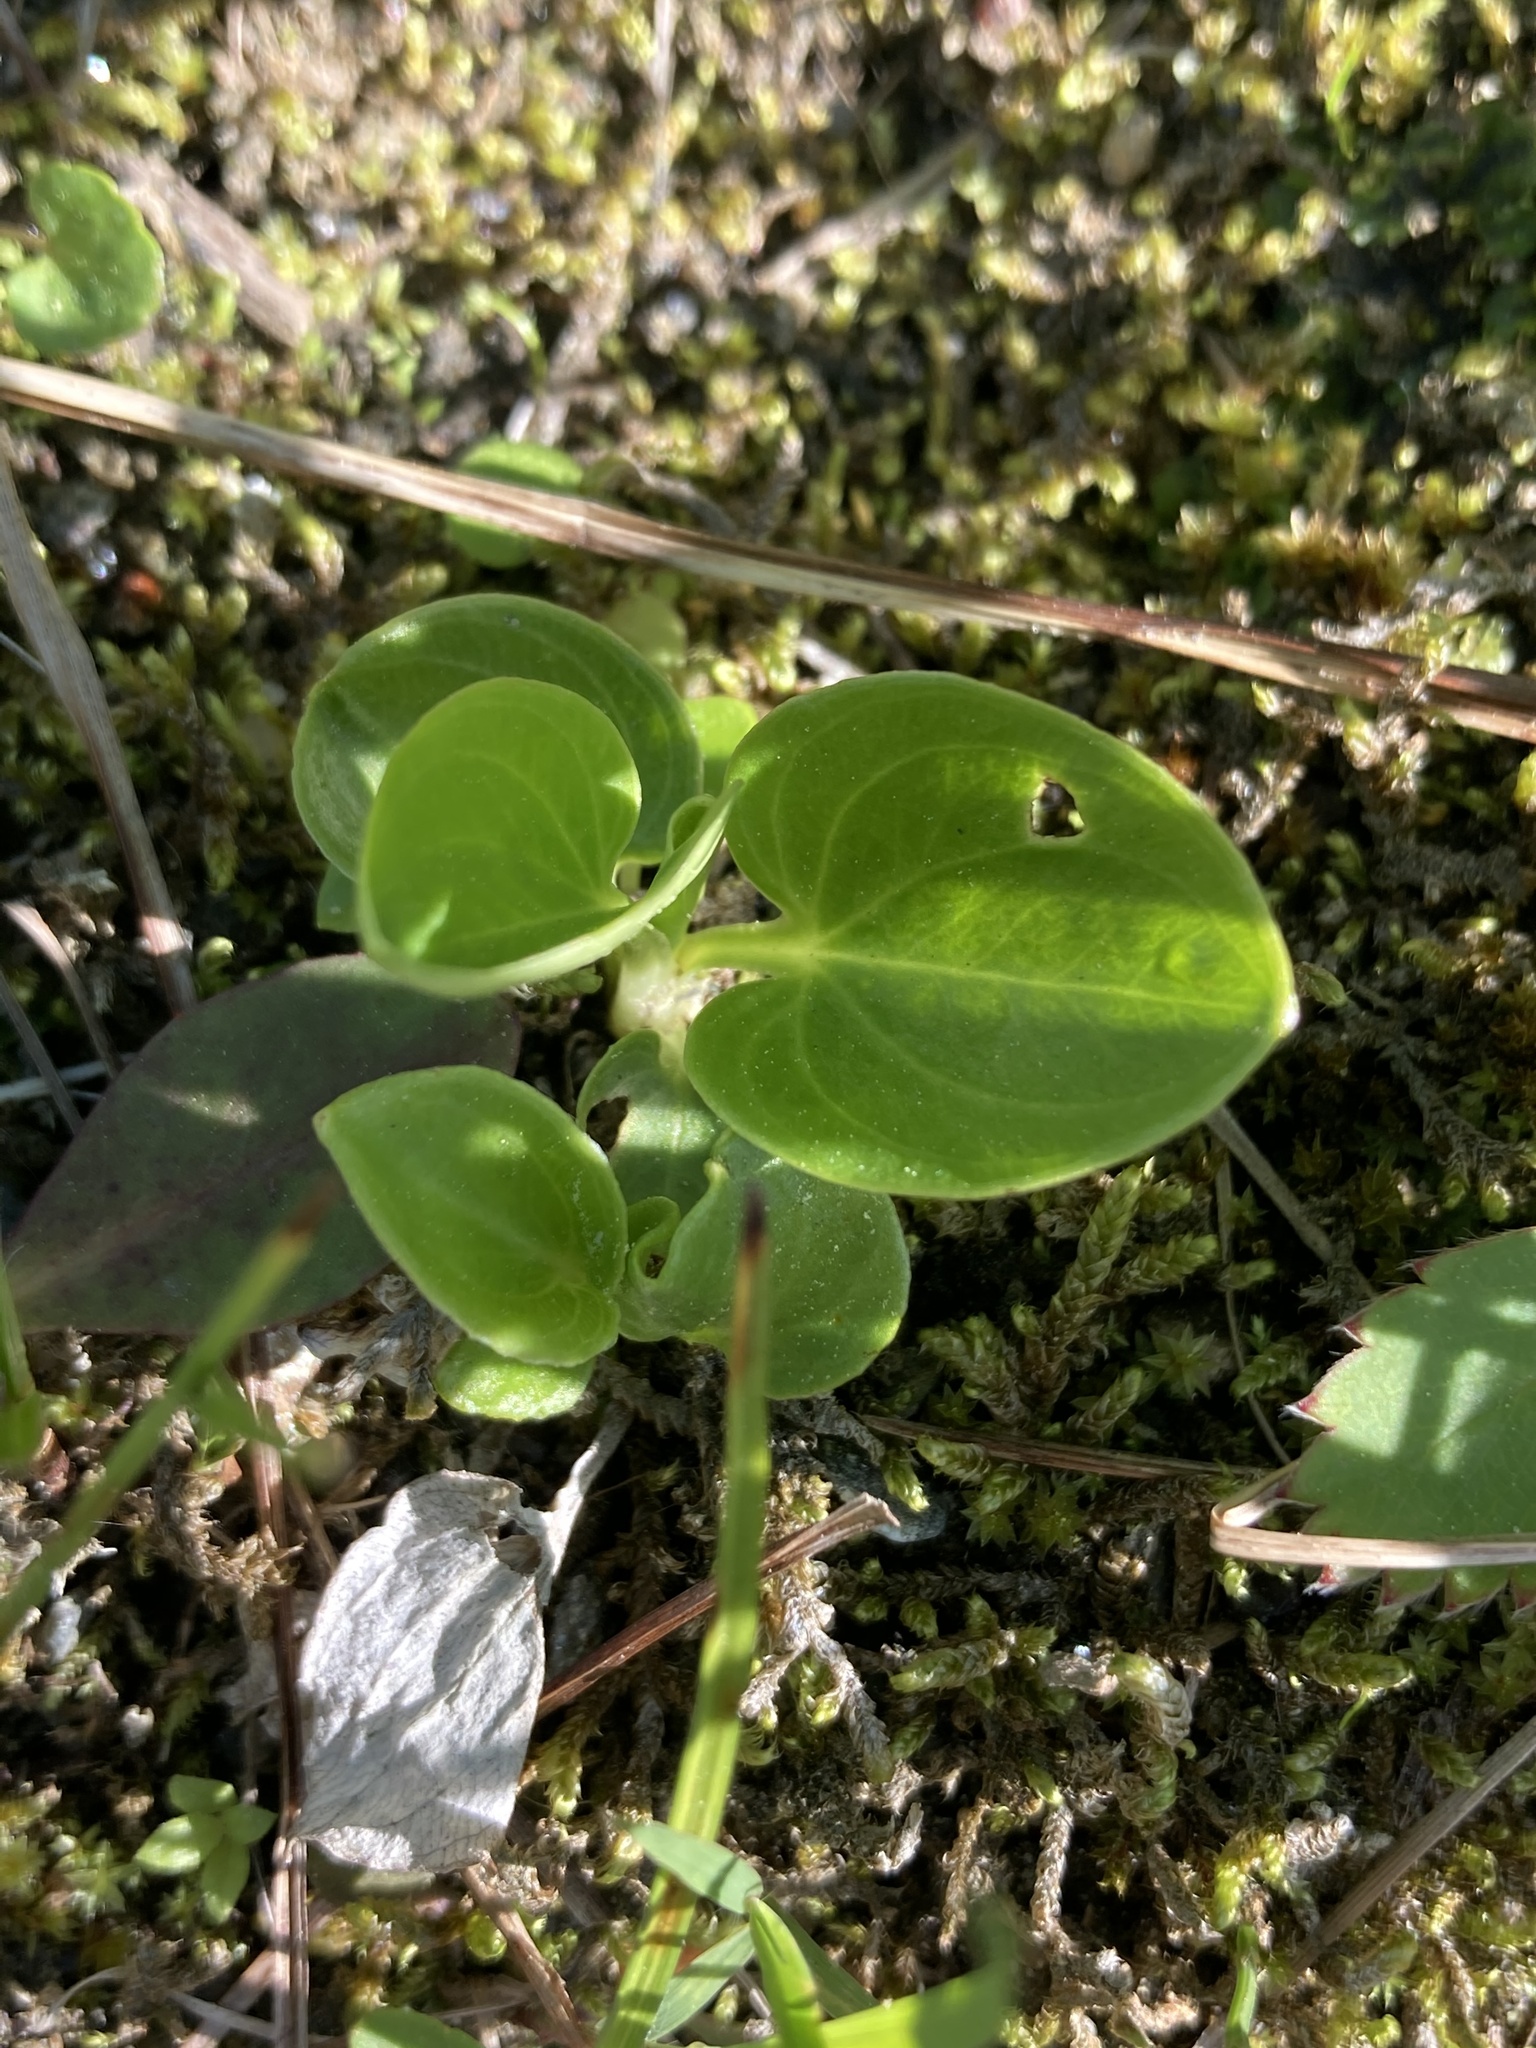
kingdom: Plantae
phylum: Tracheophyta
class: Magnoliopsida
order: Celastrales
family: Parnassiaceae
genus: Parnassia
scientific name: Parnassia glauca
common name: American grass-of-parnassus
